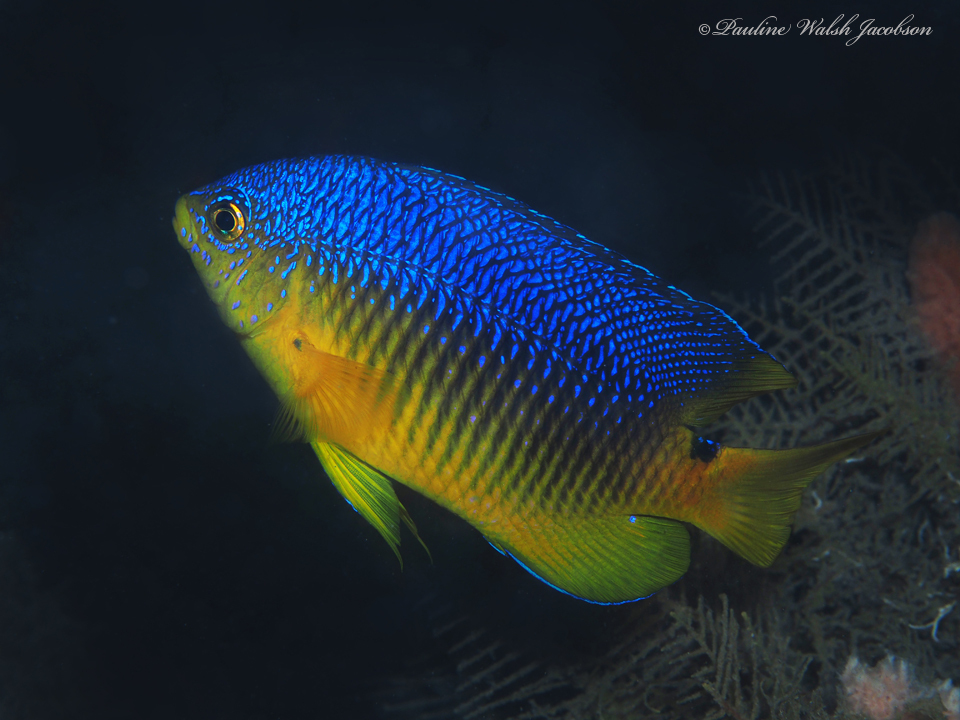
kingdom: Animalia
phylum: Chordata
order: Perciformes
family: Pomacentridae
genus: Stegastes
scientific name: Stegastes xanthurus
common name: Cocoa damselfish
